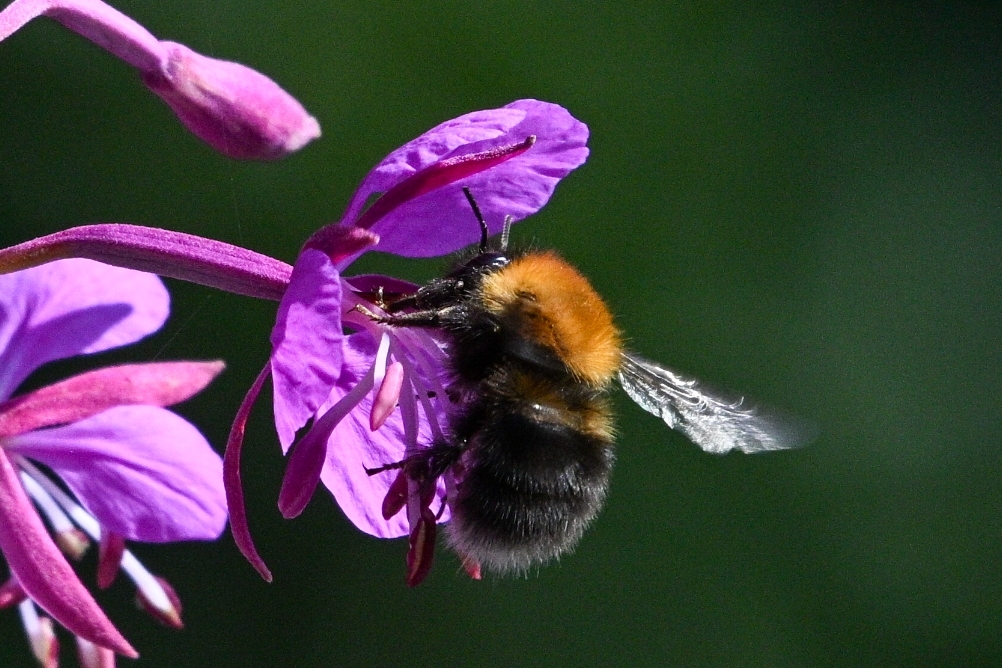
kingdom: Animalia
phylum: Arthropoda
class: Insecta
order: Hymenoptera
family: Apidae
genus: Bombus
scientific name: Bombus hypnorum
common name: New garden bumblebee
